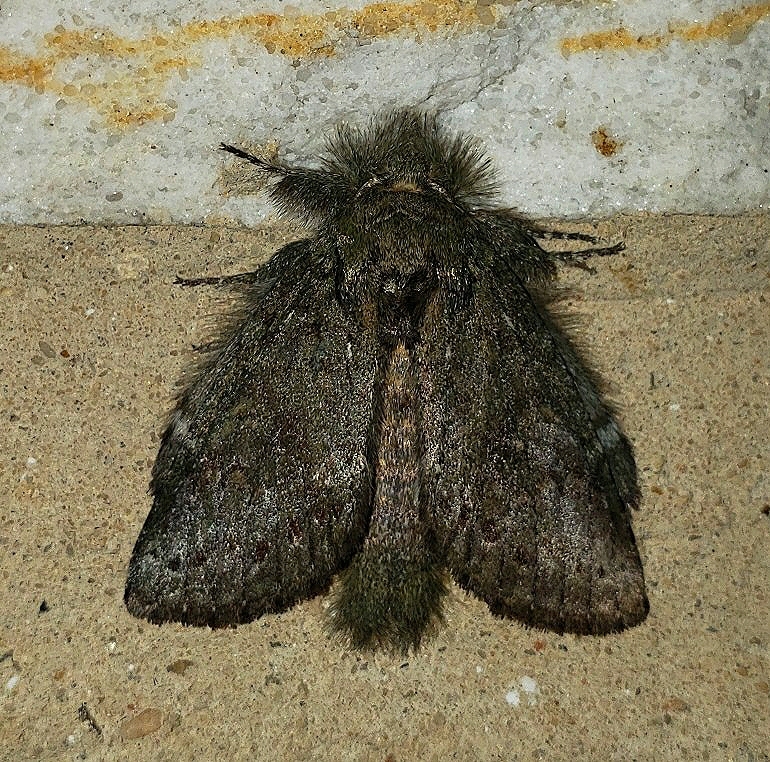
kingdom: Animalia
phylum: Arthropoda
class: Insecta
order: Lepidoptera
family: Notodontidae
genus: Disphragis
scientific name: Disphragis Cecrita guttivitta
